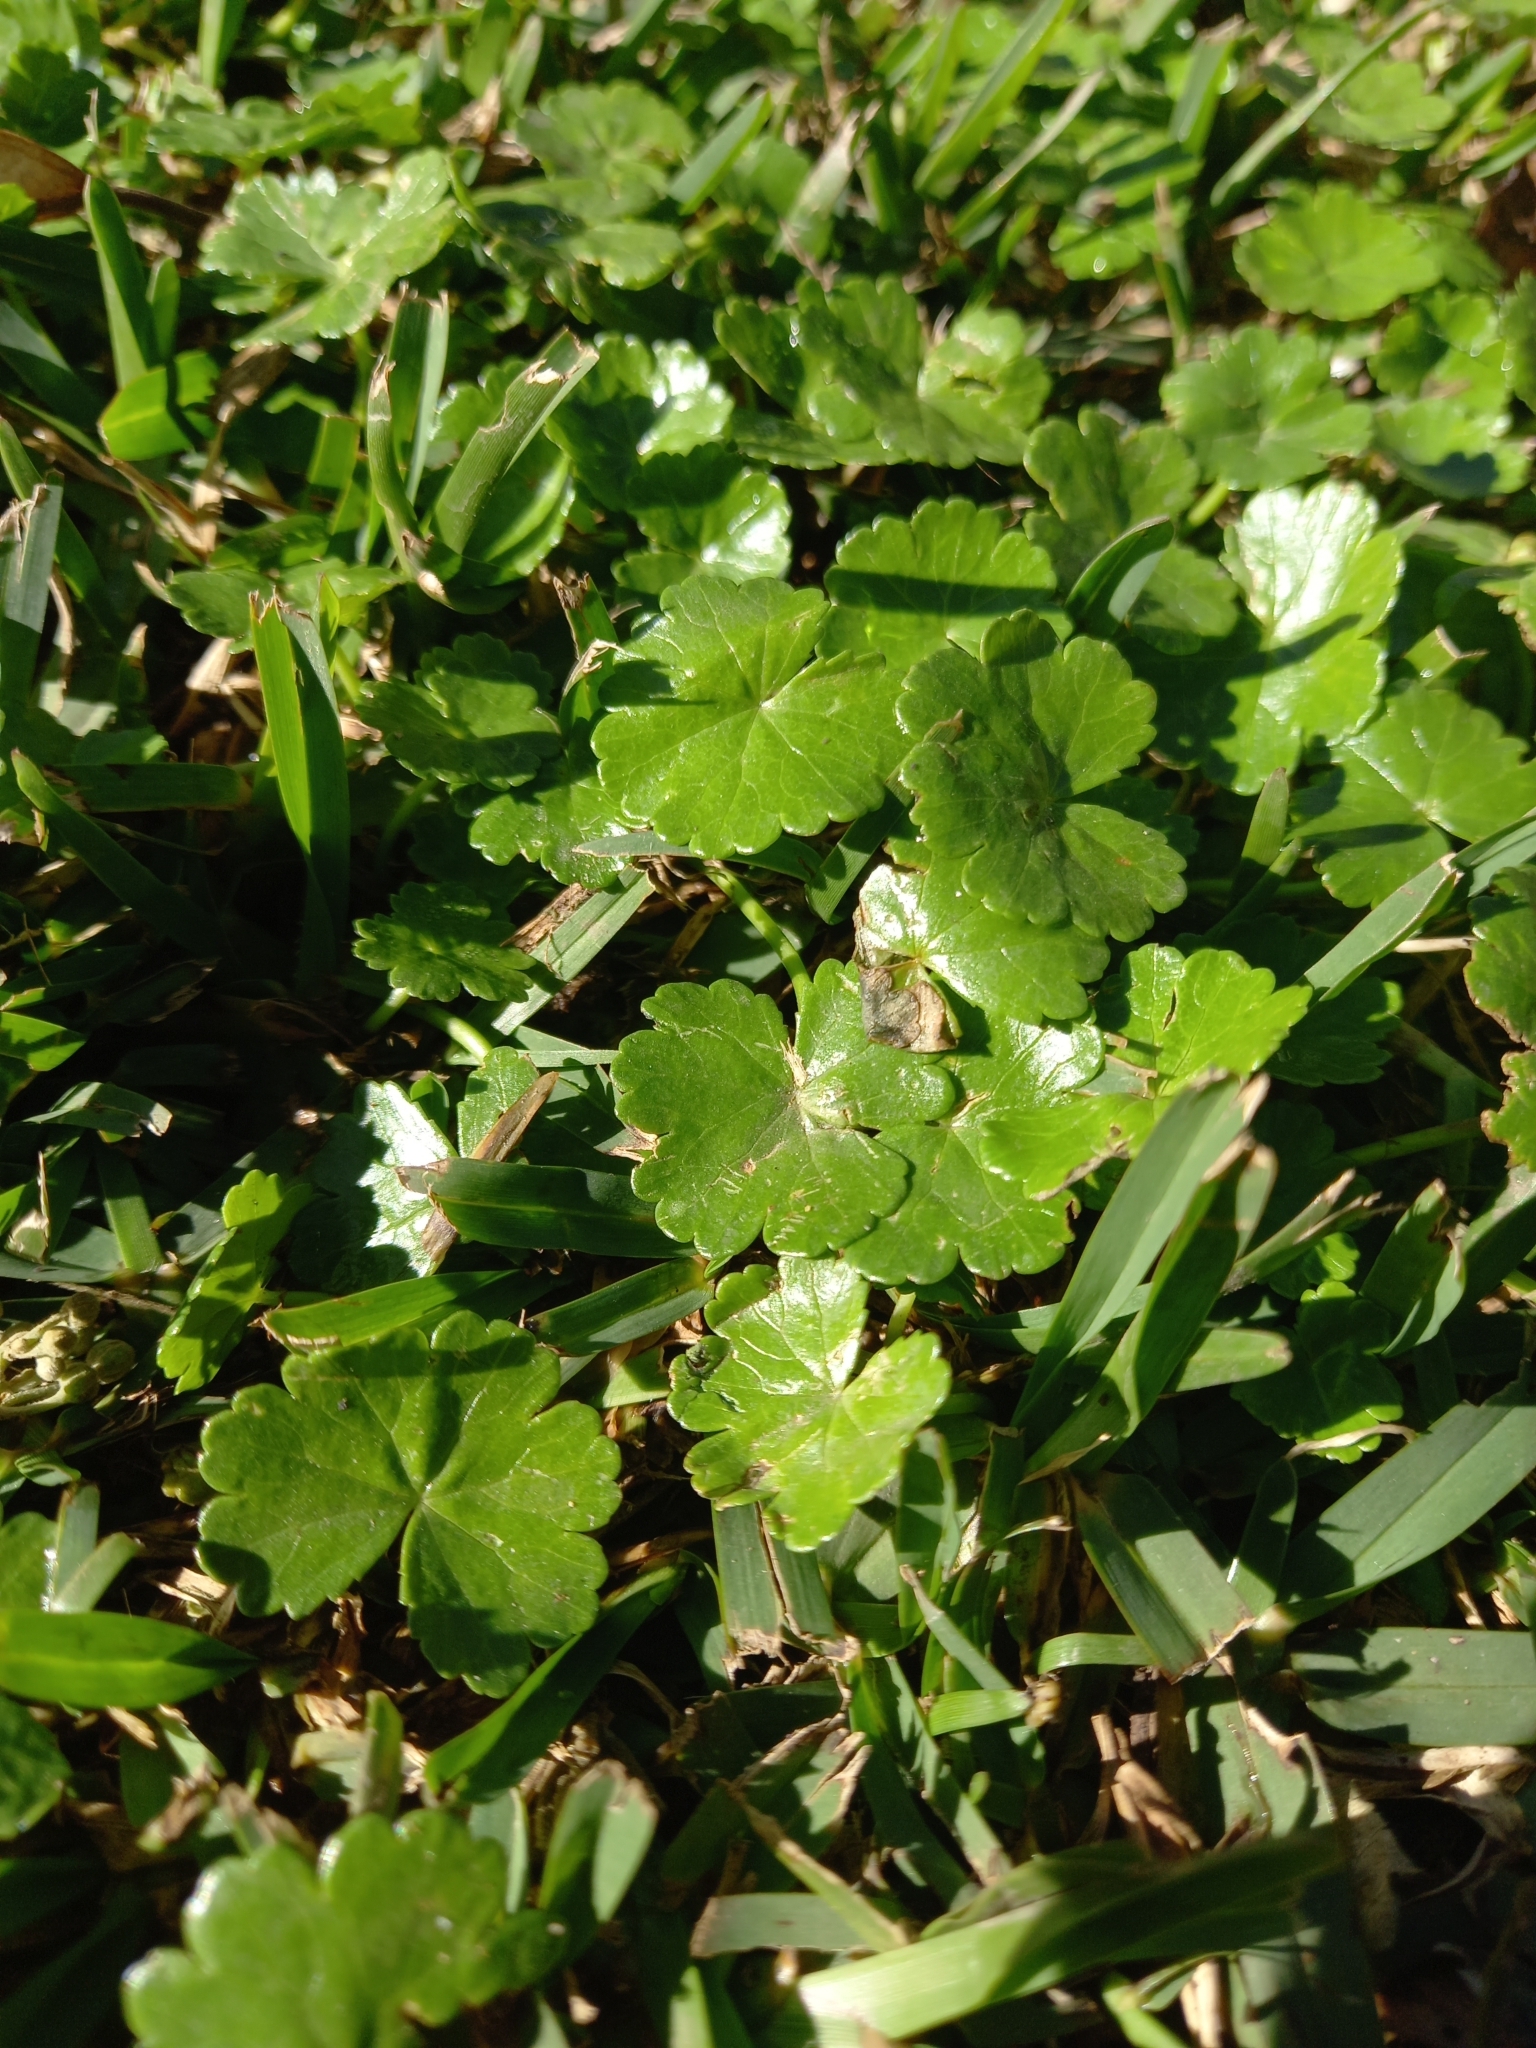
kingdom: Plantae
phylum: Tracheophyta
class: Magnoliopsida
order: Apiales
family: Araliaceae
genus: Hydrocotyle
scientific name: Hydrocotyle sibthorpioides
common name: Lawn marshpennywort
